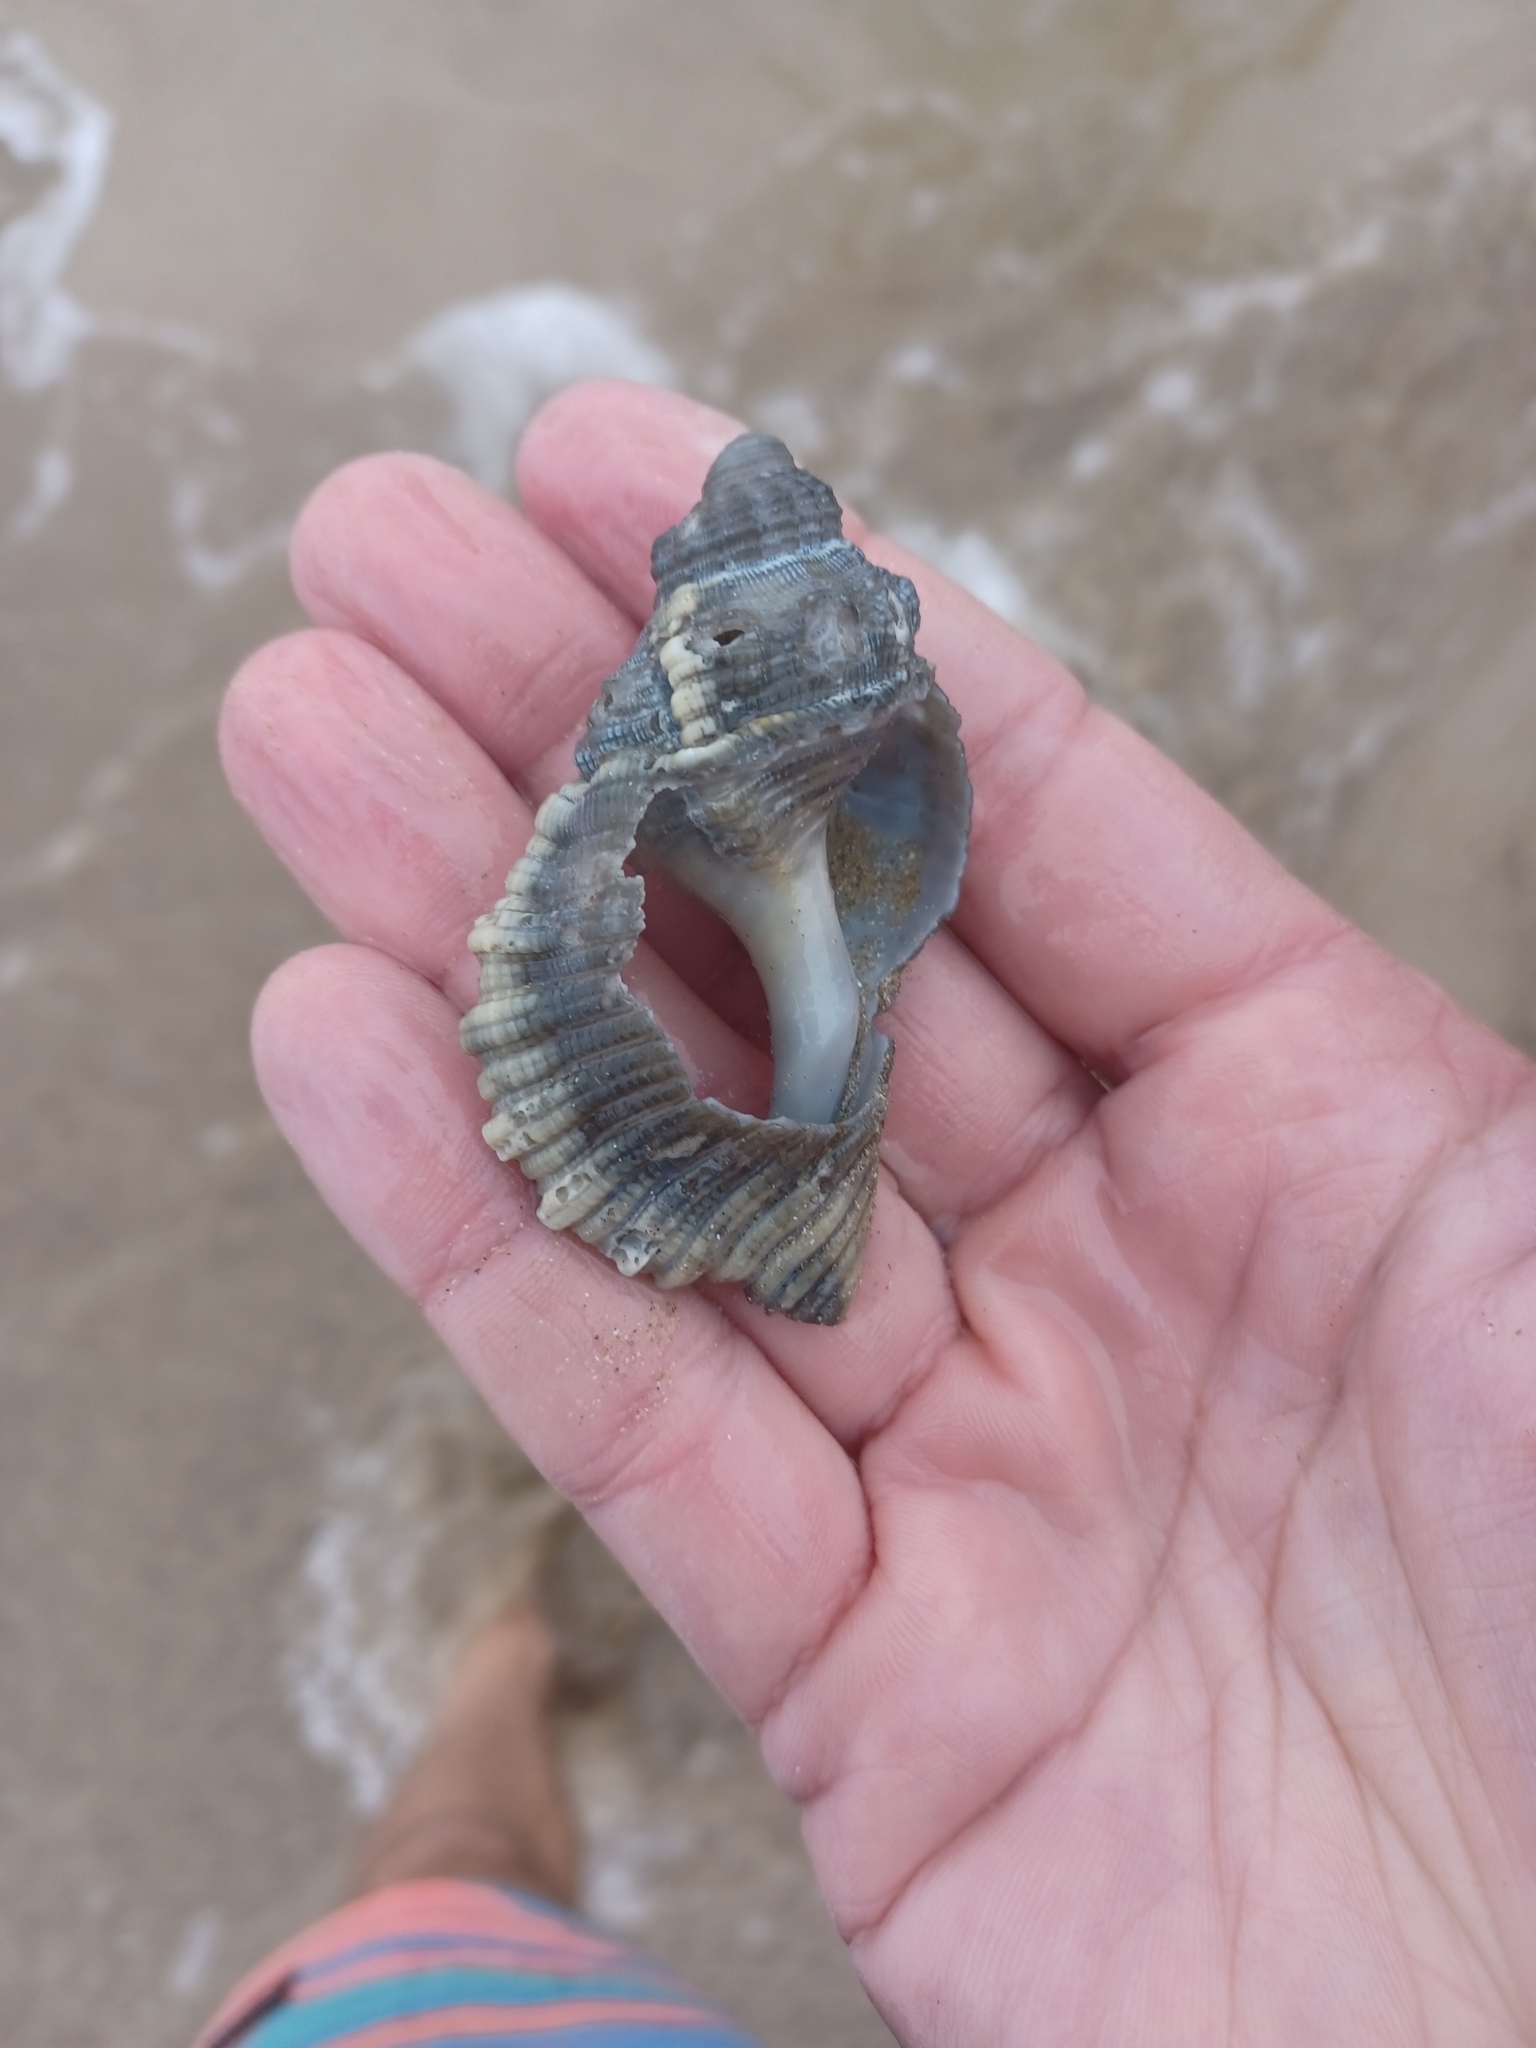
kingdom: Animalia
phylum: Mollusca
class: Gastropoda
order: Littorinimorpha
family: Cymatiidae
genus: Cabestana
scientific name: Cabestana spengleri
